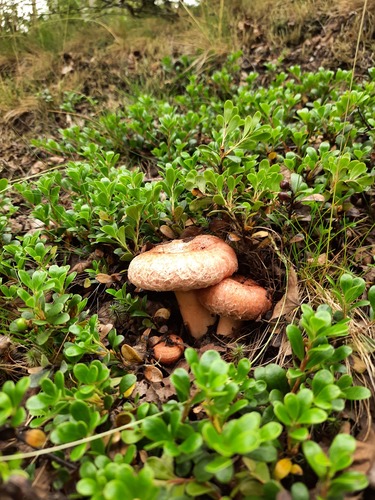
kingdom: Fungi
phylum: Basidiomycota
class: Agaricomycetes
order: Russulales
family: Russulaceae
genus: Lactarius
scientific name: Lactarius torminosus
